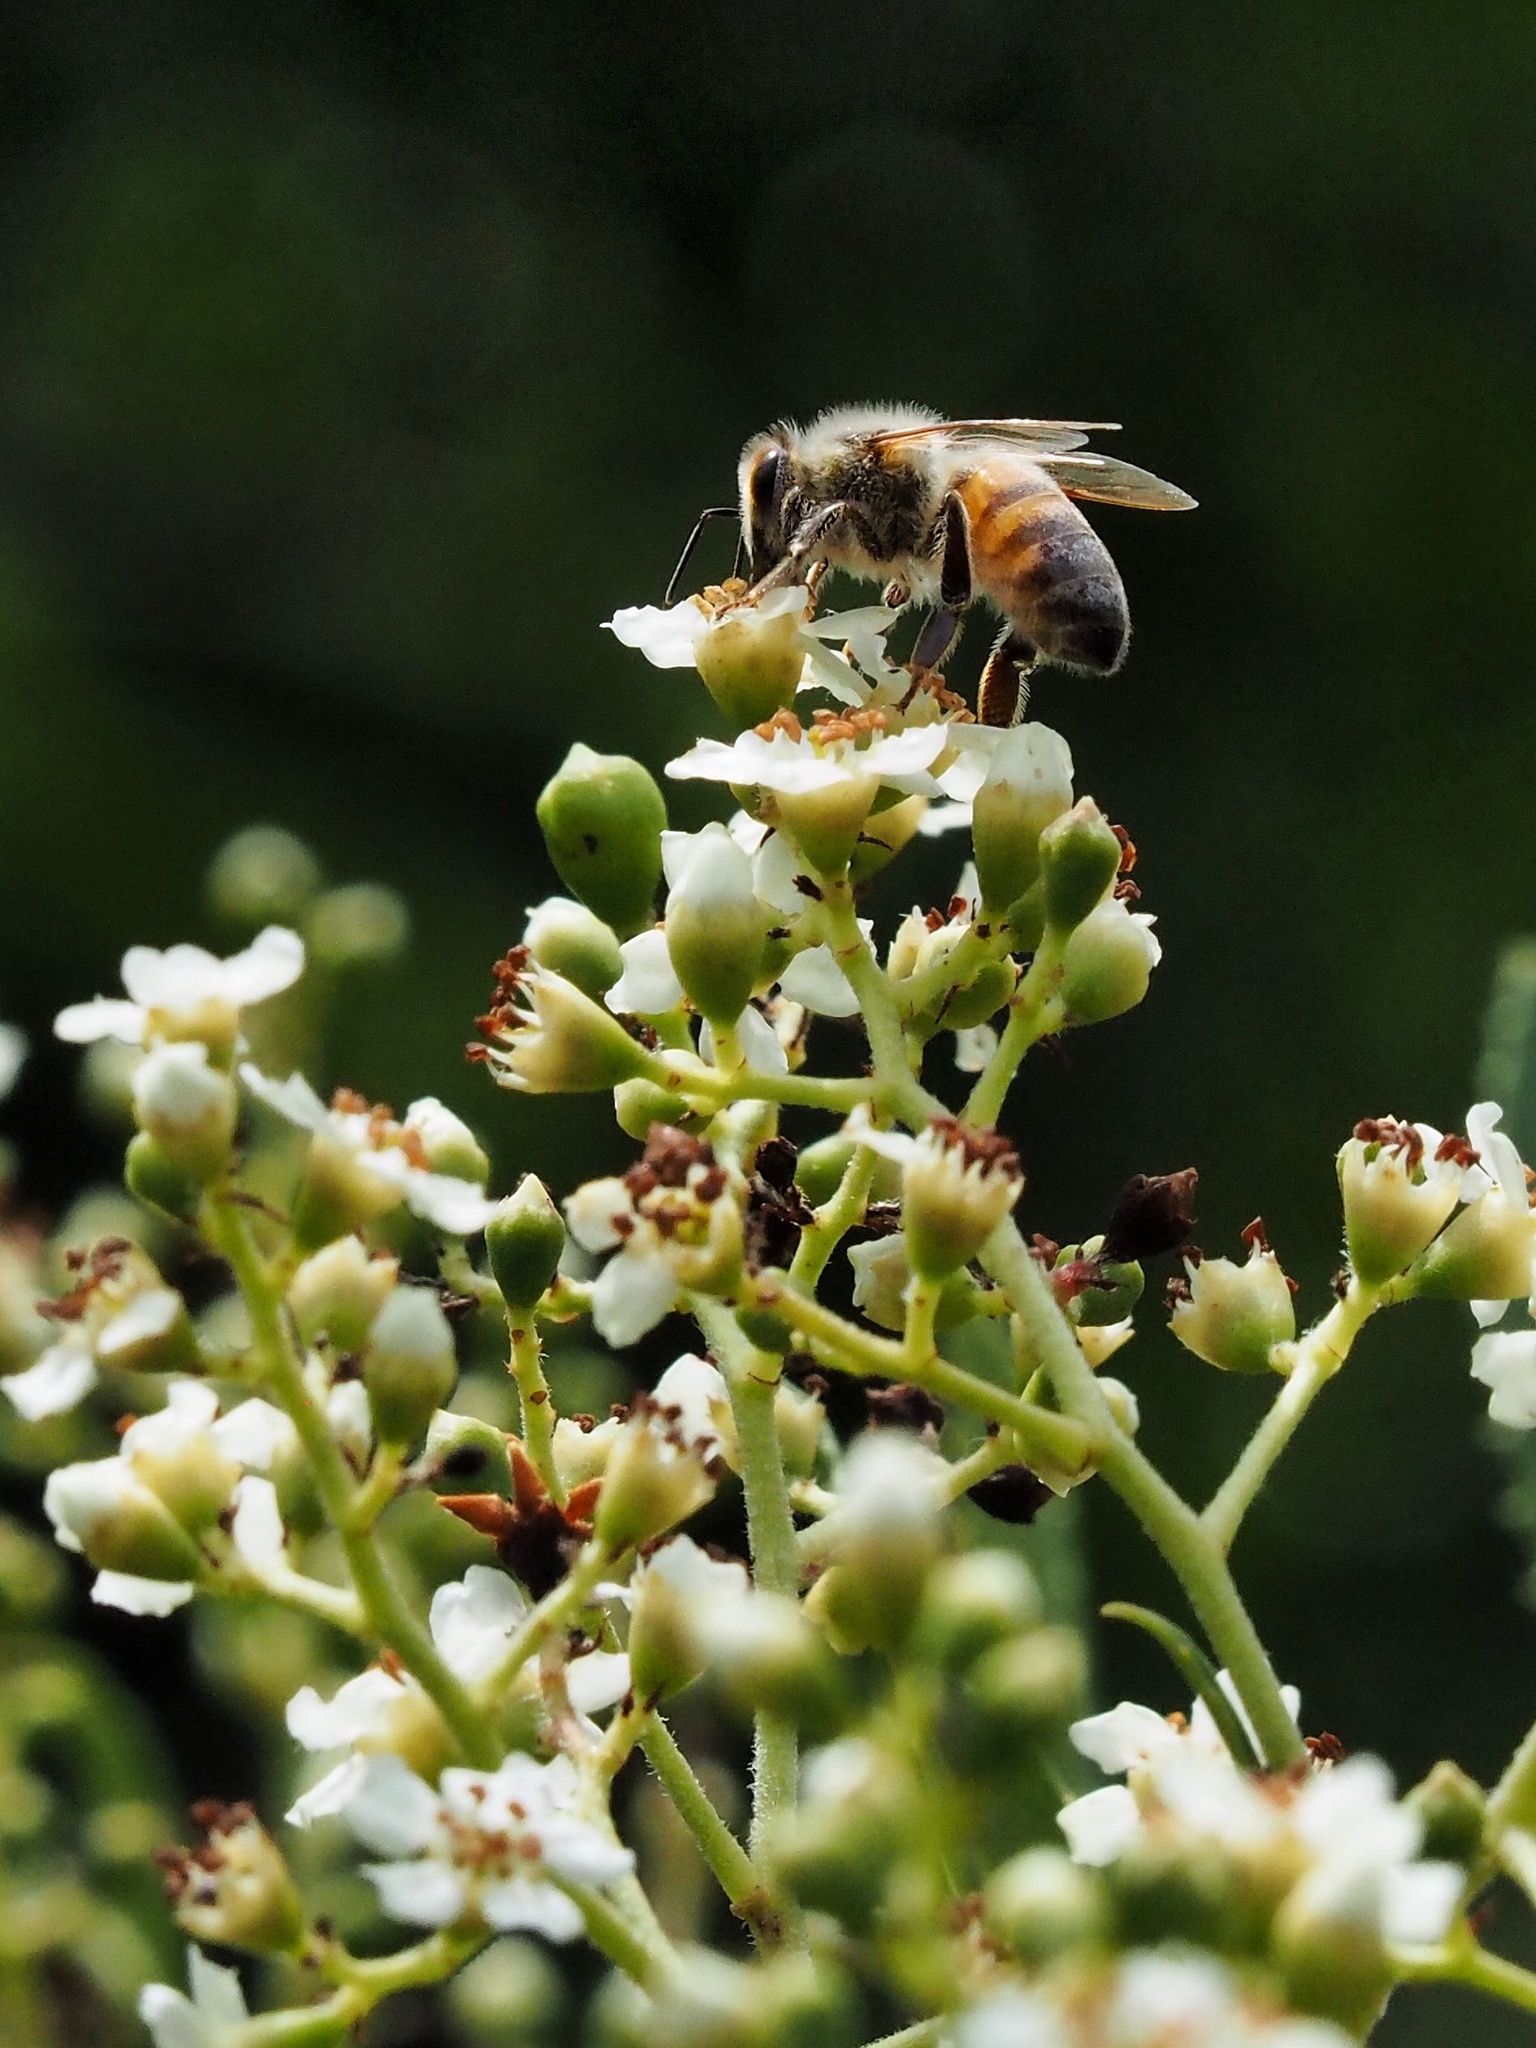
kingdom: Animalia
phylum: Arthropoda
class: Insecta
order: Hymenoptera
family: Apidae
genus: Apis
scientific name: Apis mellifera
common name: Honey bee
